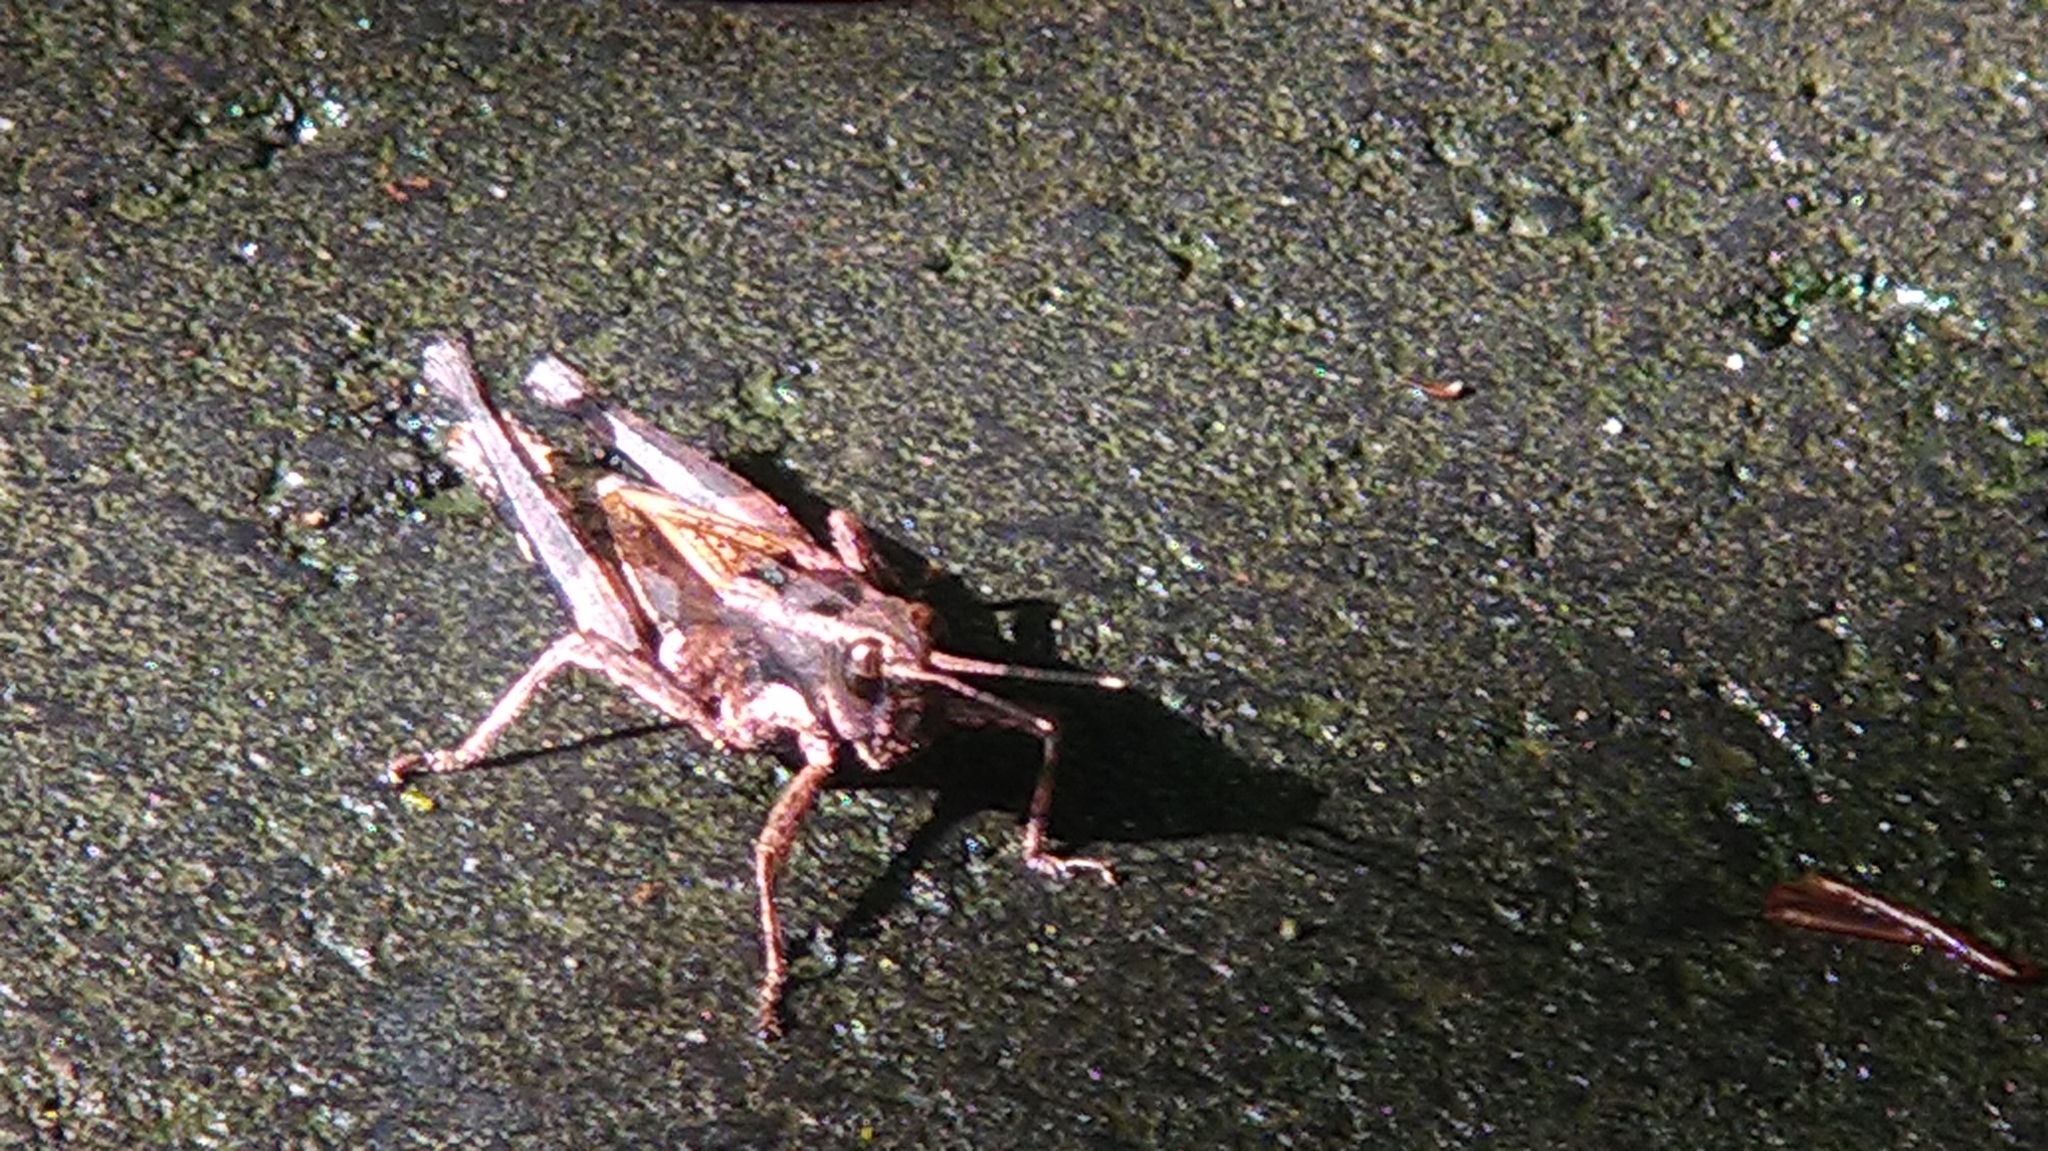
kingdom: Animalia
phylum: Arthropoda
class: Insecta
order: Orthoptera
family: Acrididae
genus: Traulia
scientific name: Traulia ornata
